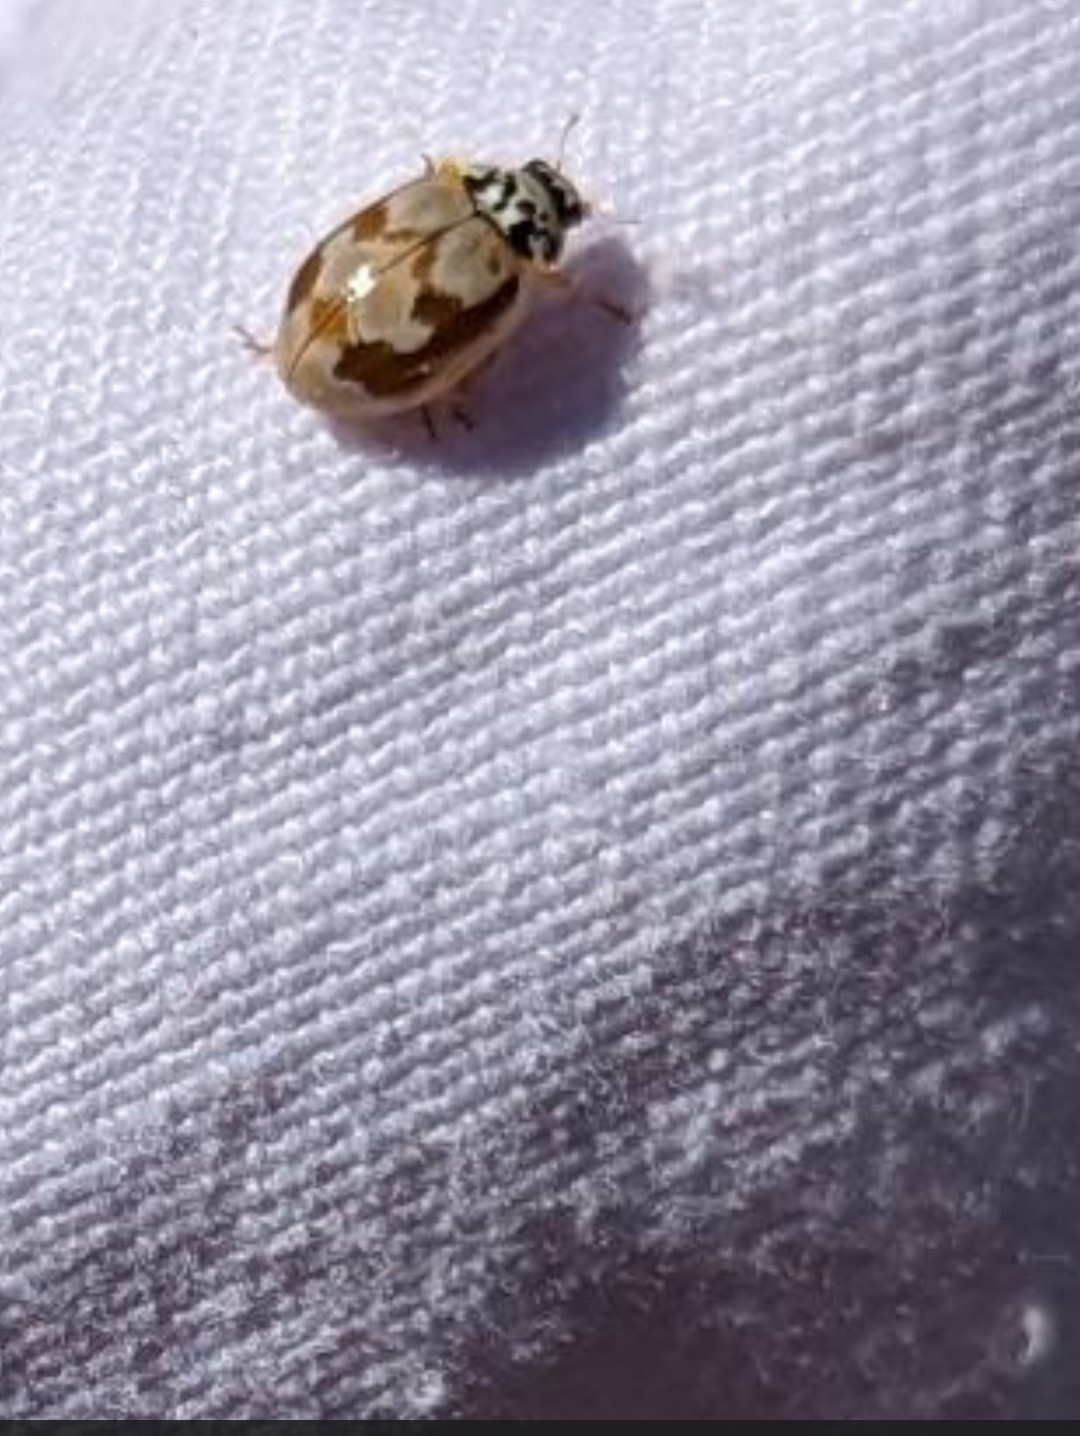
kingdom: Animalia
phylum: Arthropoda
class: Insecta
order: Coleoptera
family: Coccinellidae
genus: Mulsantina
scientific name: Mulsantina picta
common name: Painted ladybird
